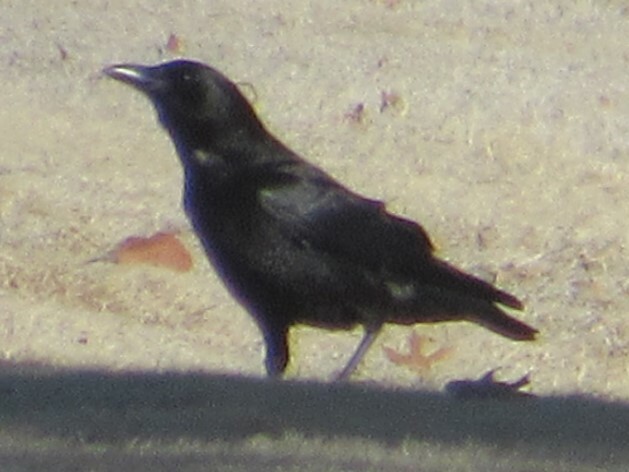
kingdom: Animalia
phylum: Chordata
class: Aves
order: Passeriformes
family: Corvidae
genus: Corvus
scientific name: Corvus brachyrhynchos
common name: American crow
